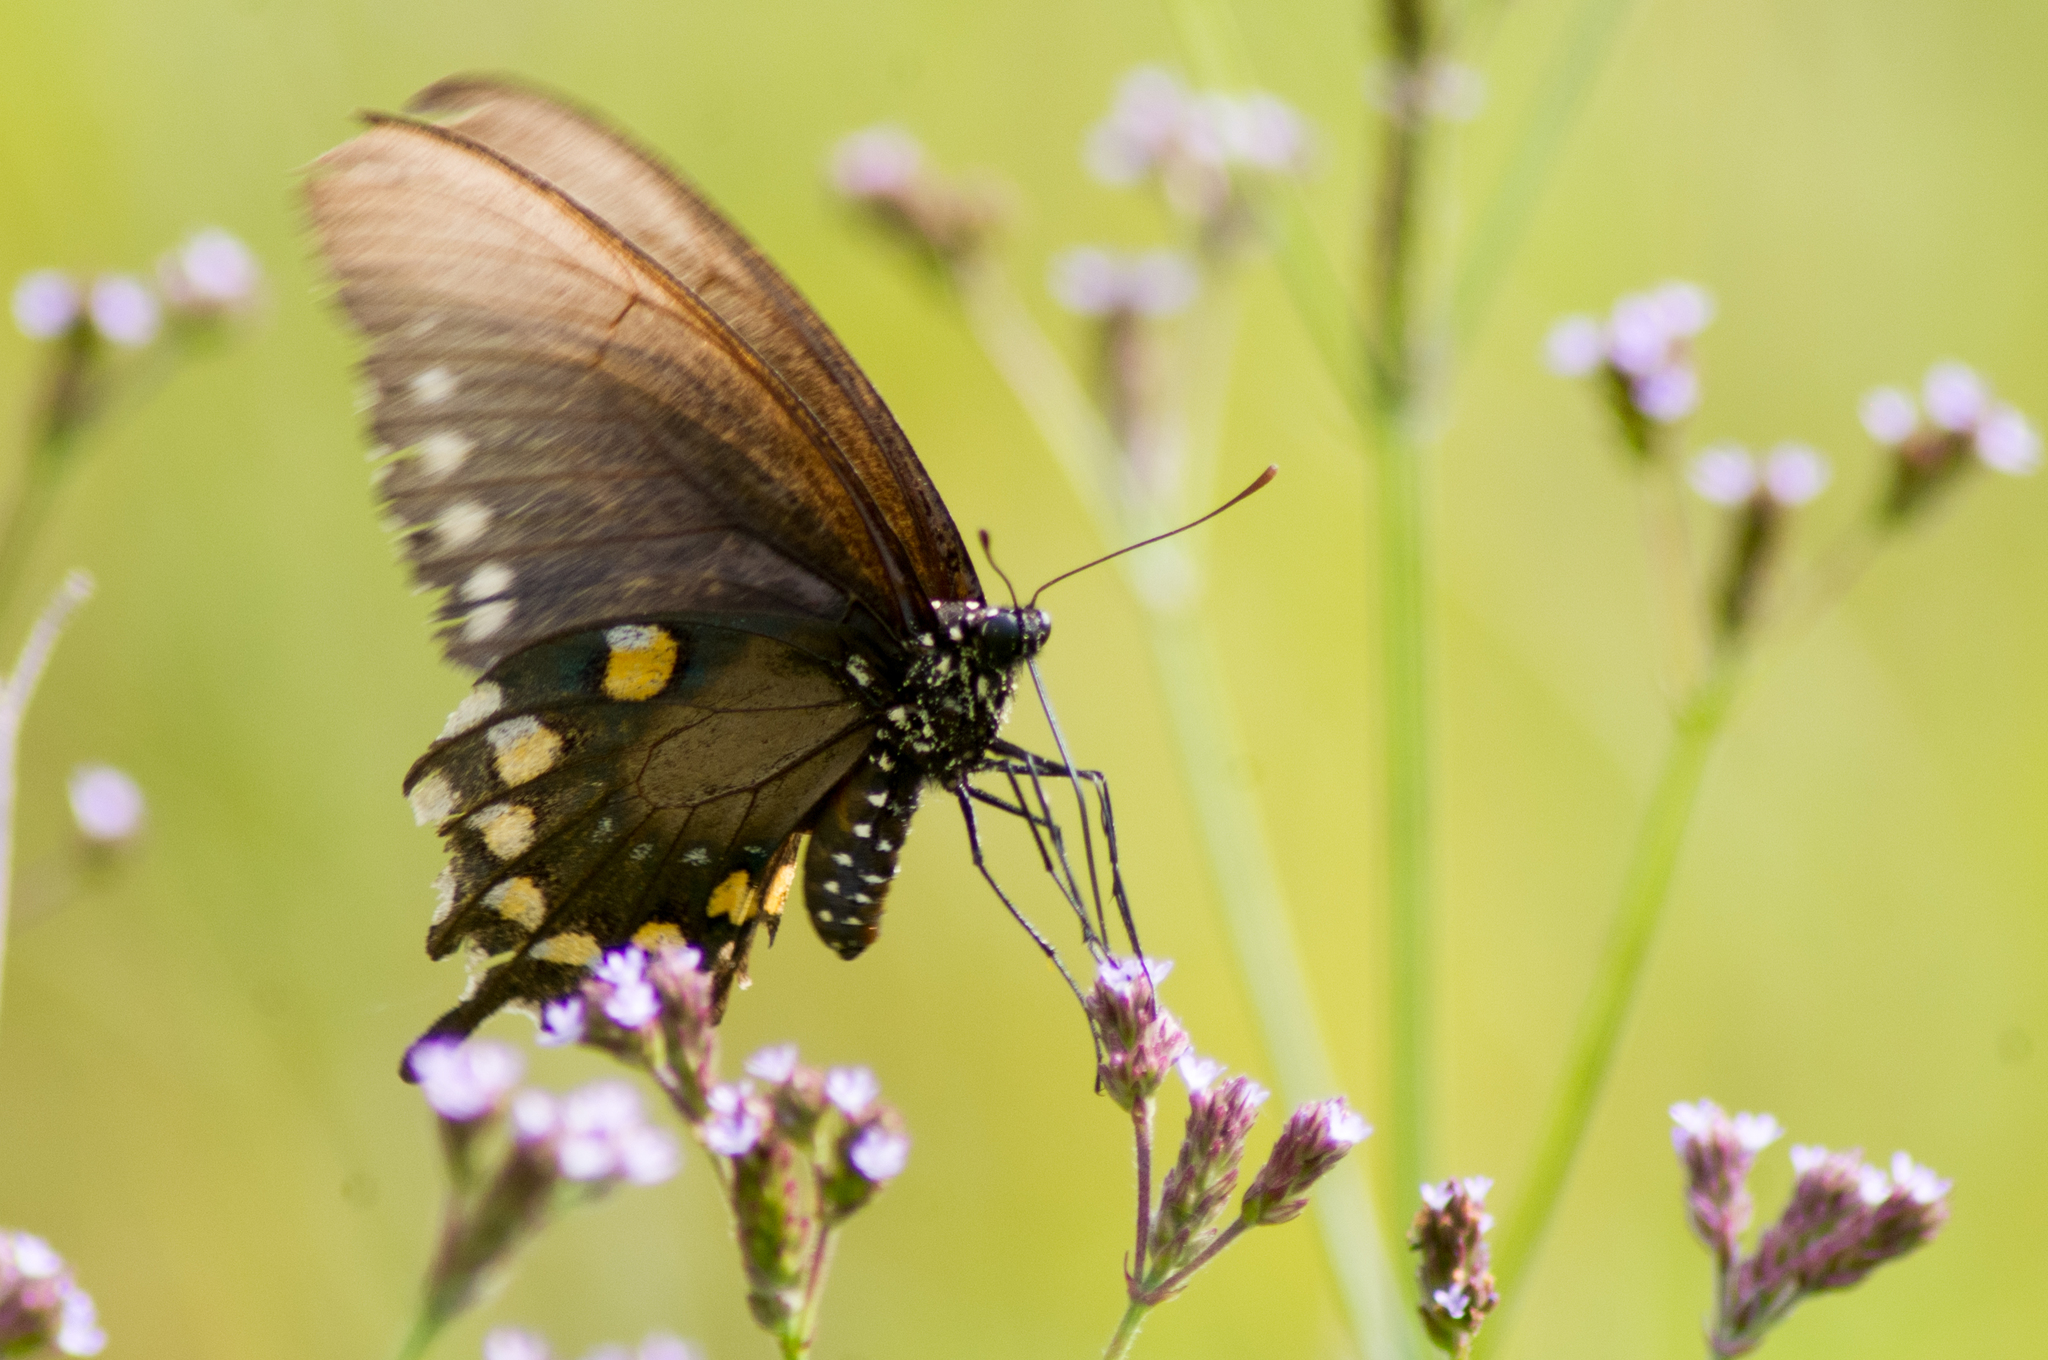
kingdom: Animalia
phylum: Arthropoda
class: Insecta
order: Lepidoptera
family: Papilionidae
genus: Battus
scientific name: Battus philenor
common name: Pipevine swallowtail
